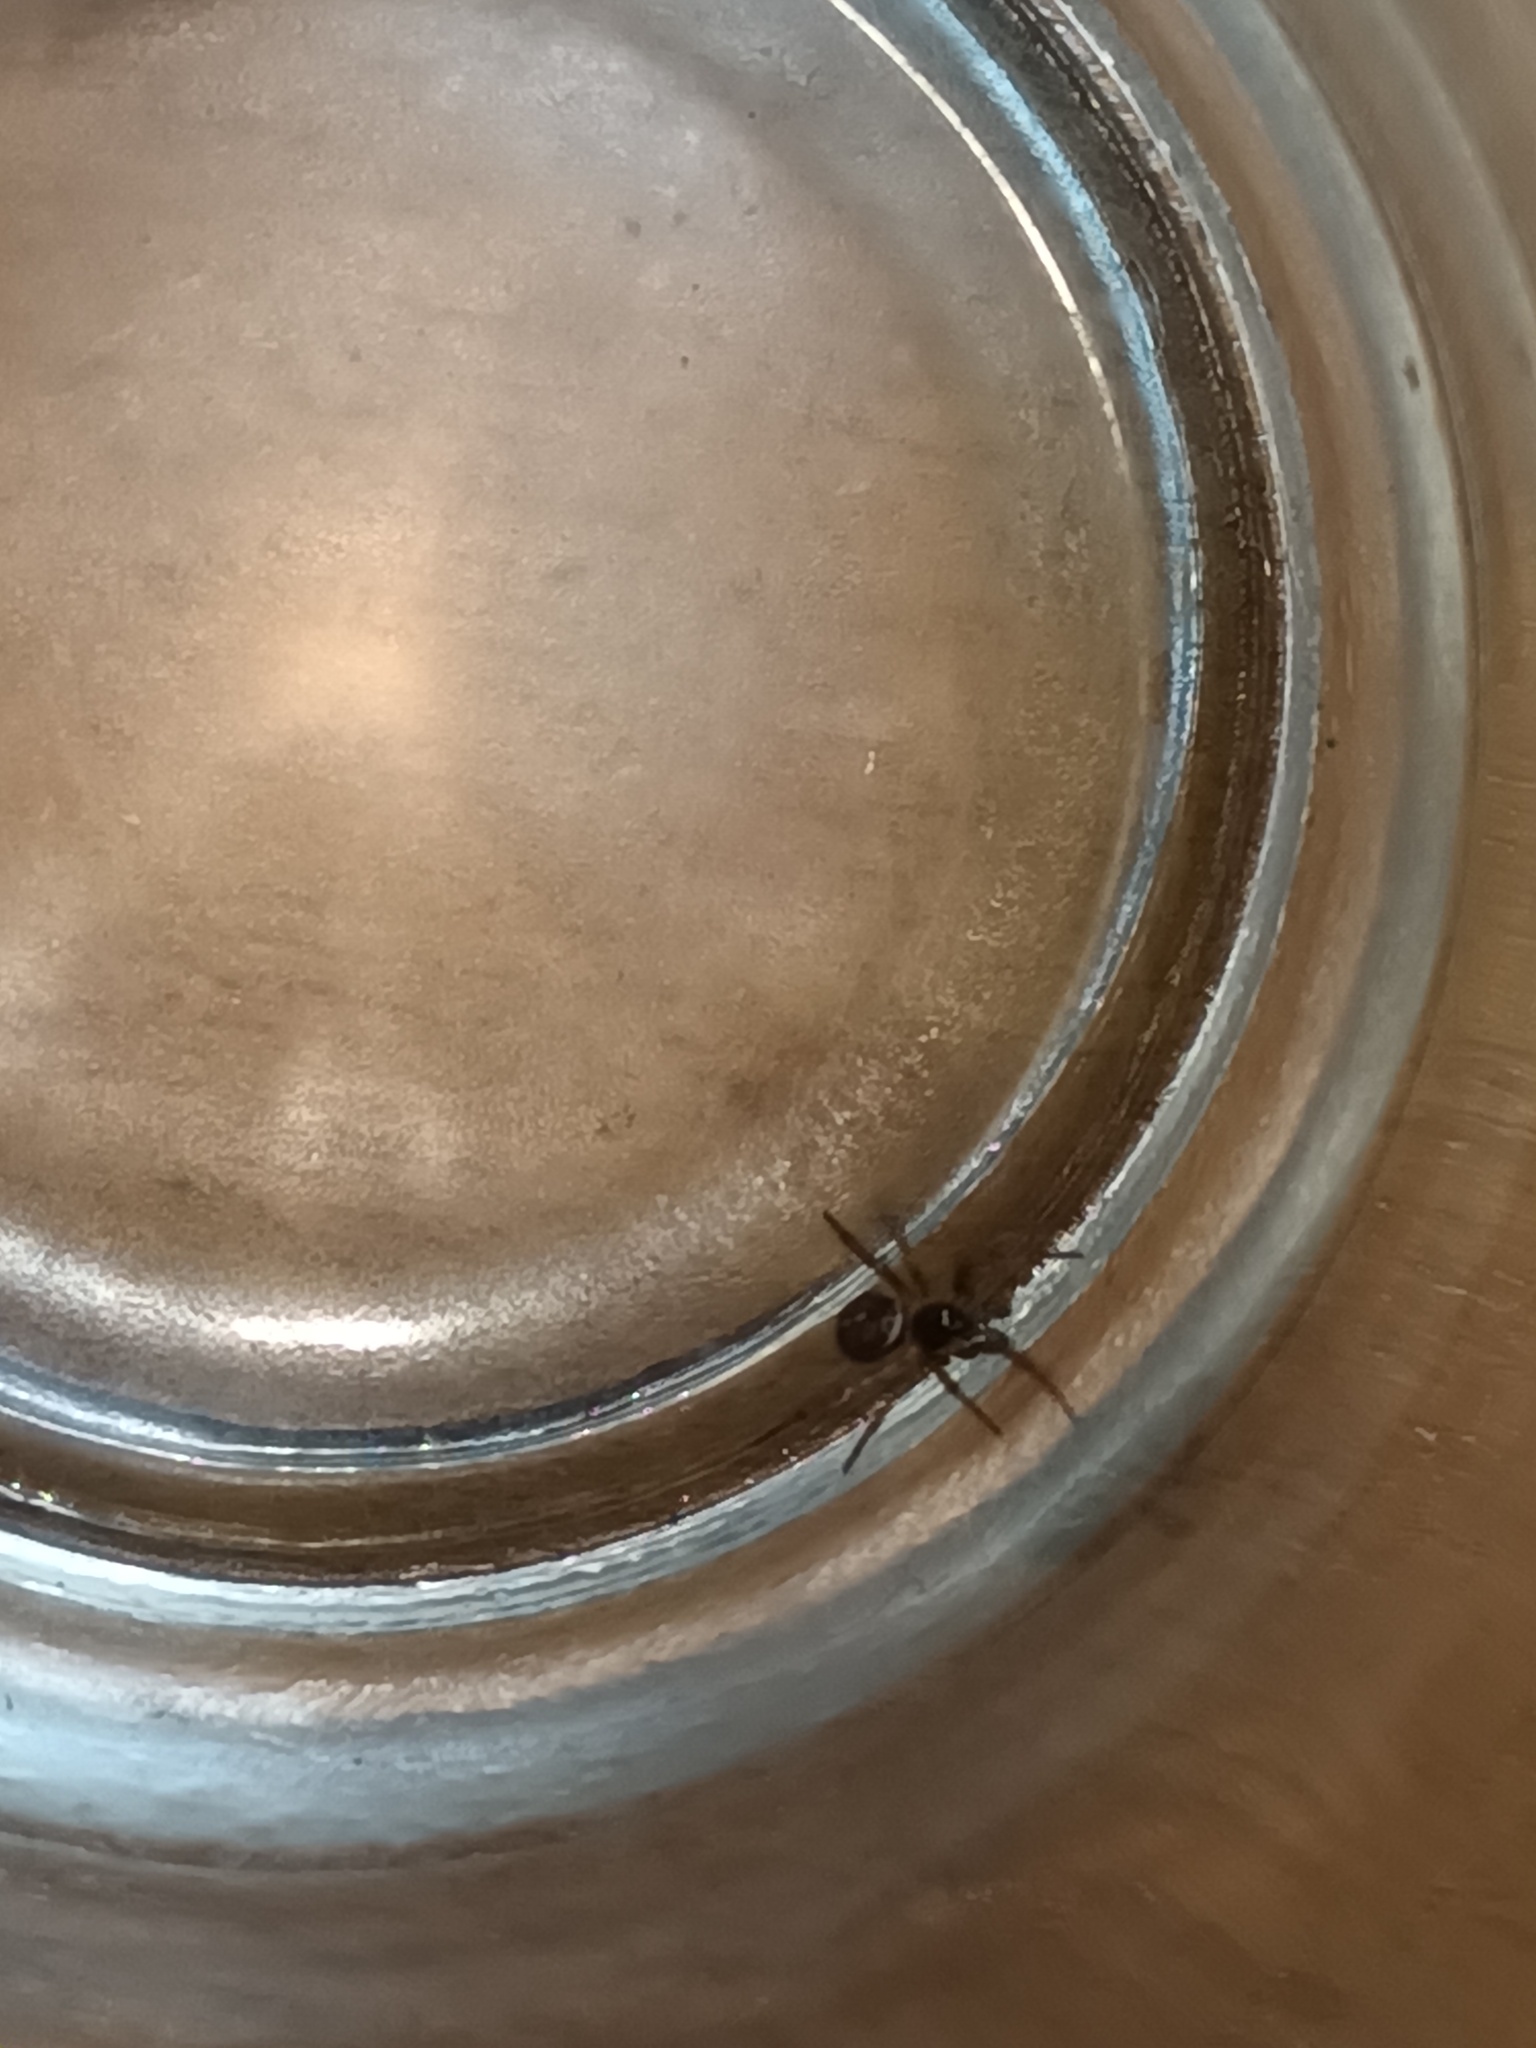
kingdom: Animalia
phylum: Arthropoda
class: Arachnida
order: Araneae
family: Theridiidae
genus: Steatoda
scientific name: Steatoda bipunctata
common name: False widow
